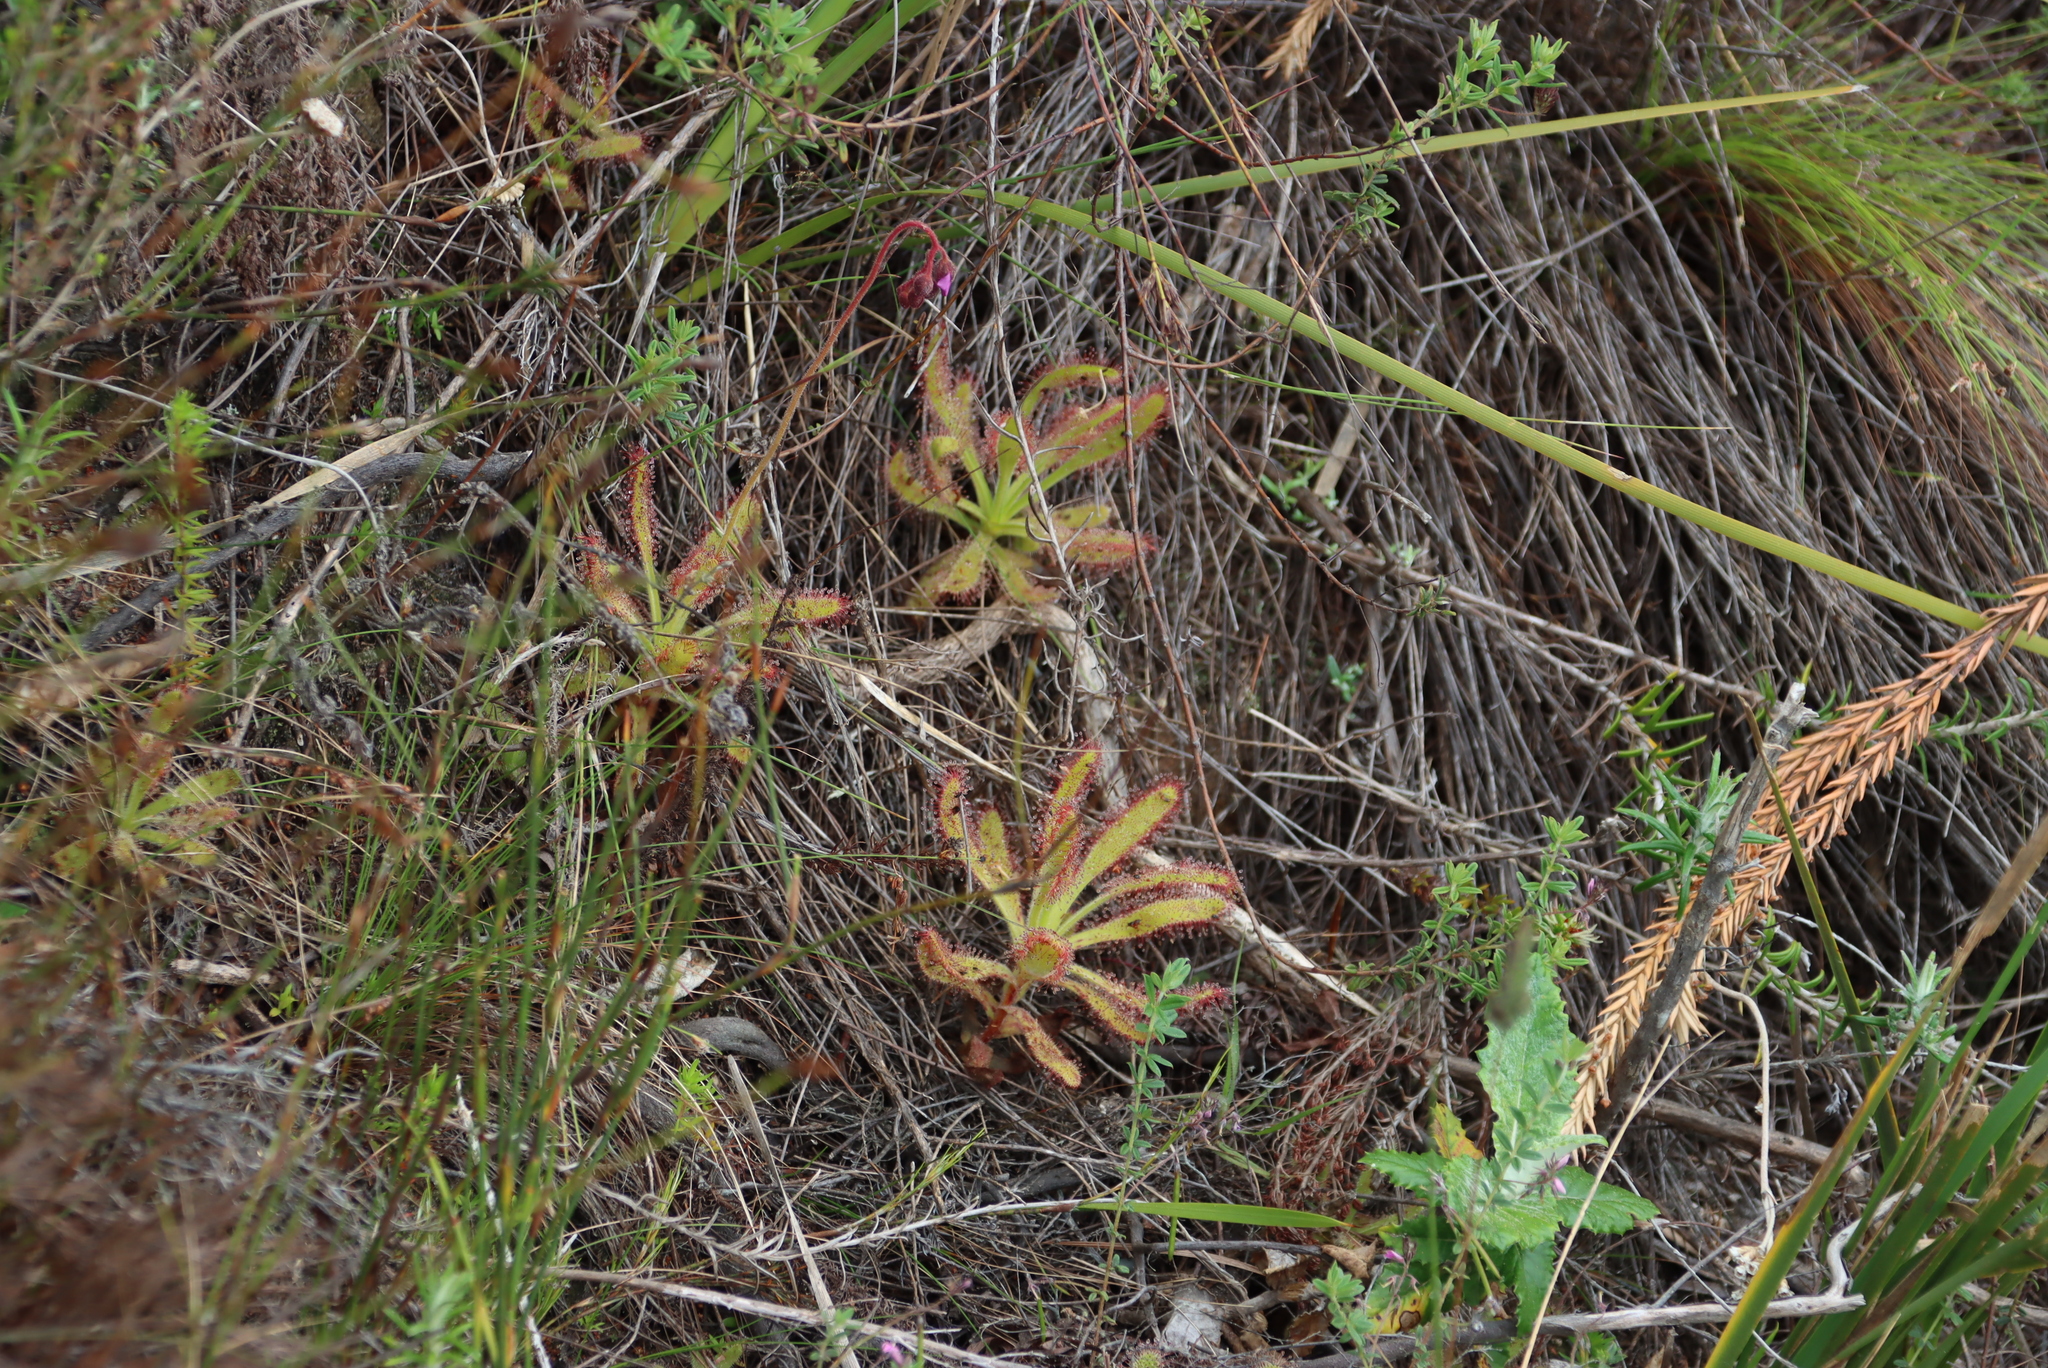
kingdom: Plantae
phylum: Tracheophyta
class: Magnoliopsida
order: Caryophyllales
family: Droseraceae
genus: Drosera
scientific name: Drosera hilaris
